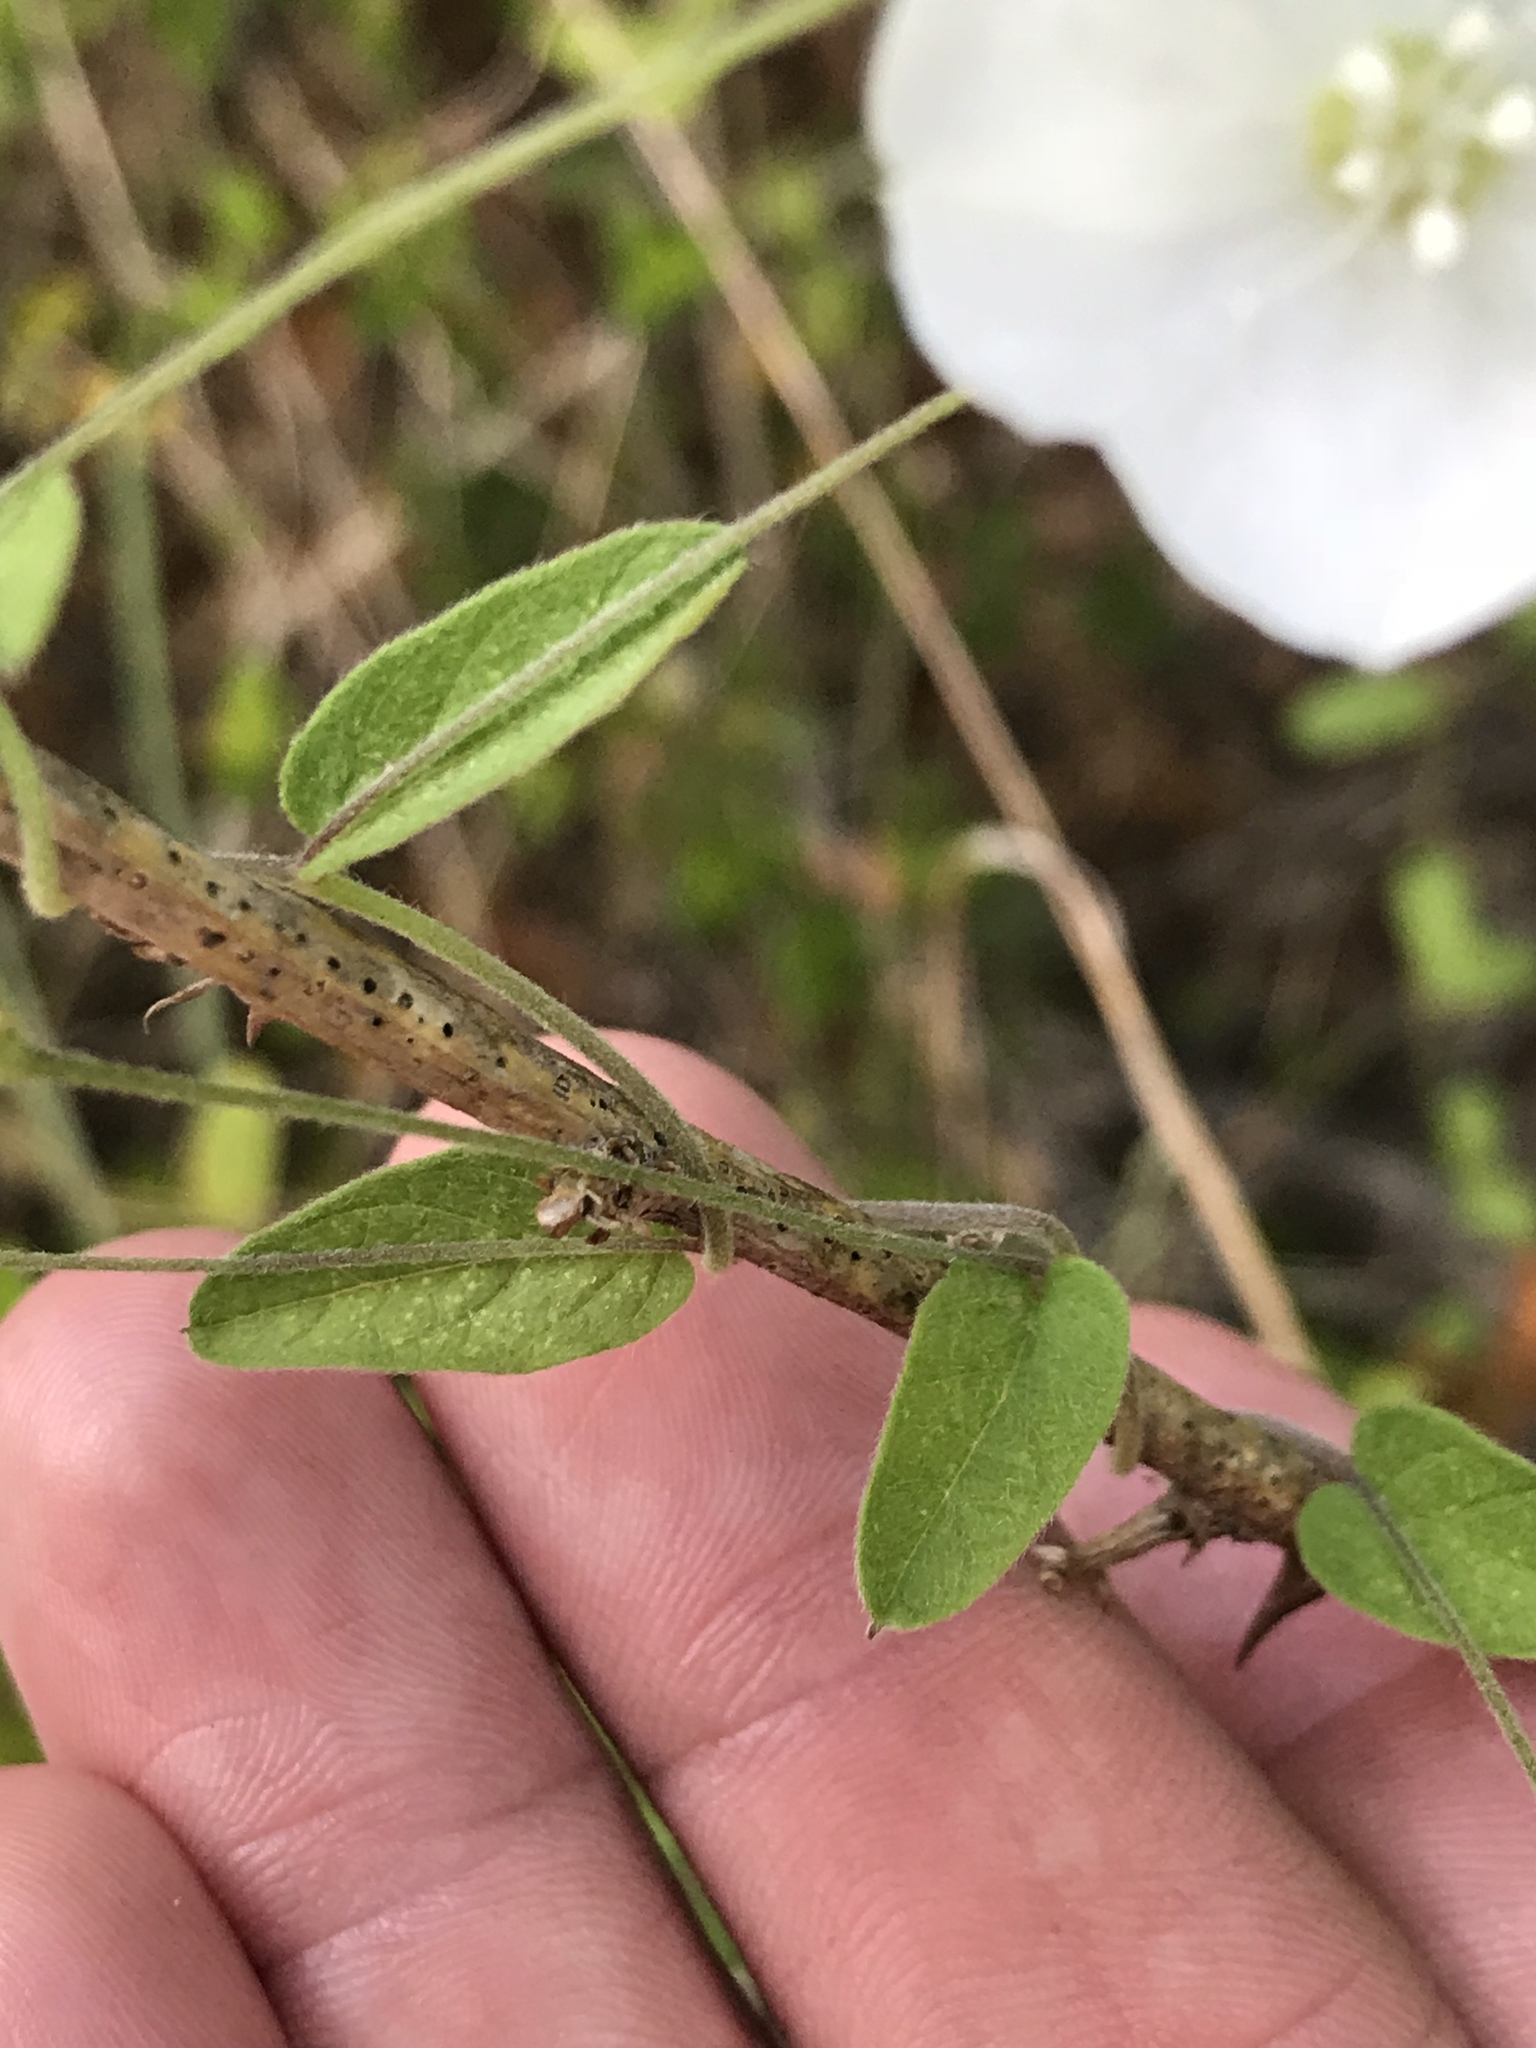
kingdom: Plantae
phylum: Tracheophyta
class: Magnoliopsida
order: Solanales
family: Convolvulaceae
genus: Stylisma
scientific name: Stylisma villosa
